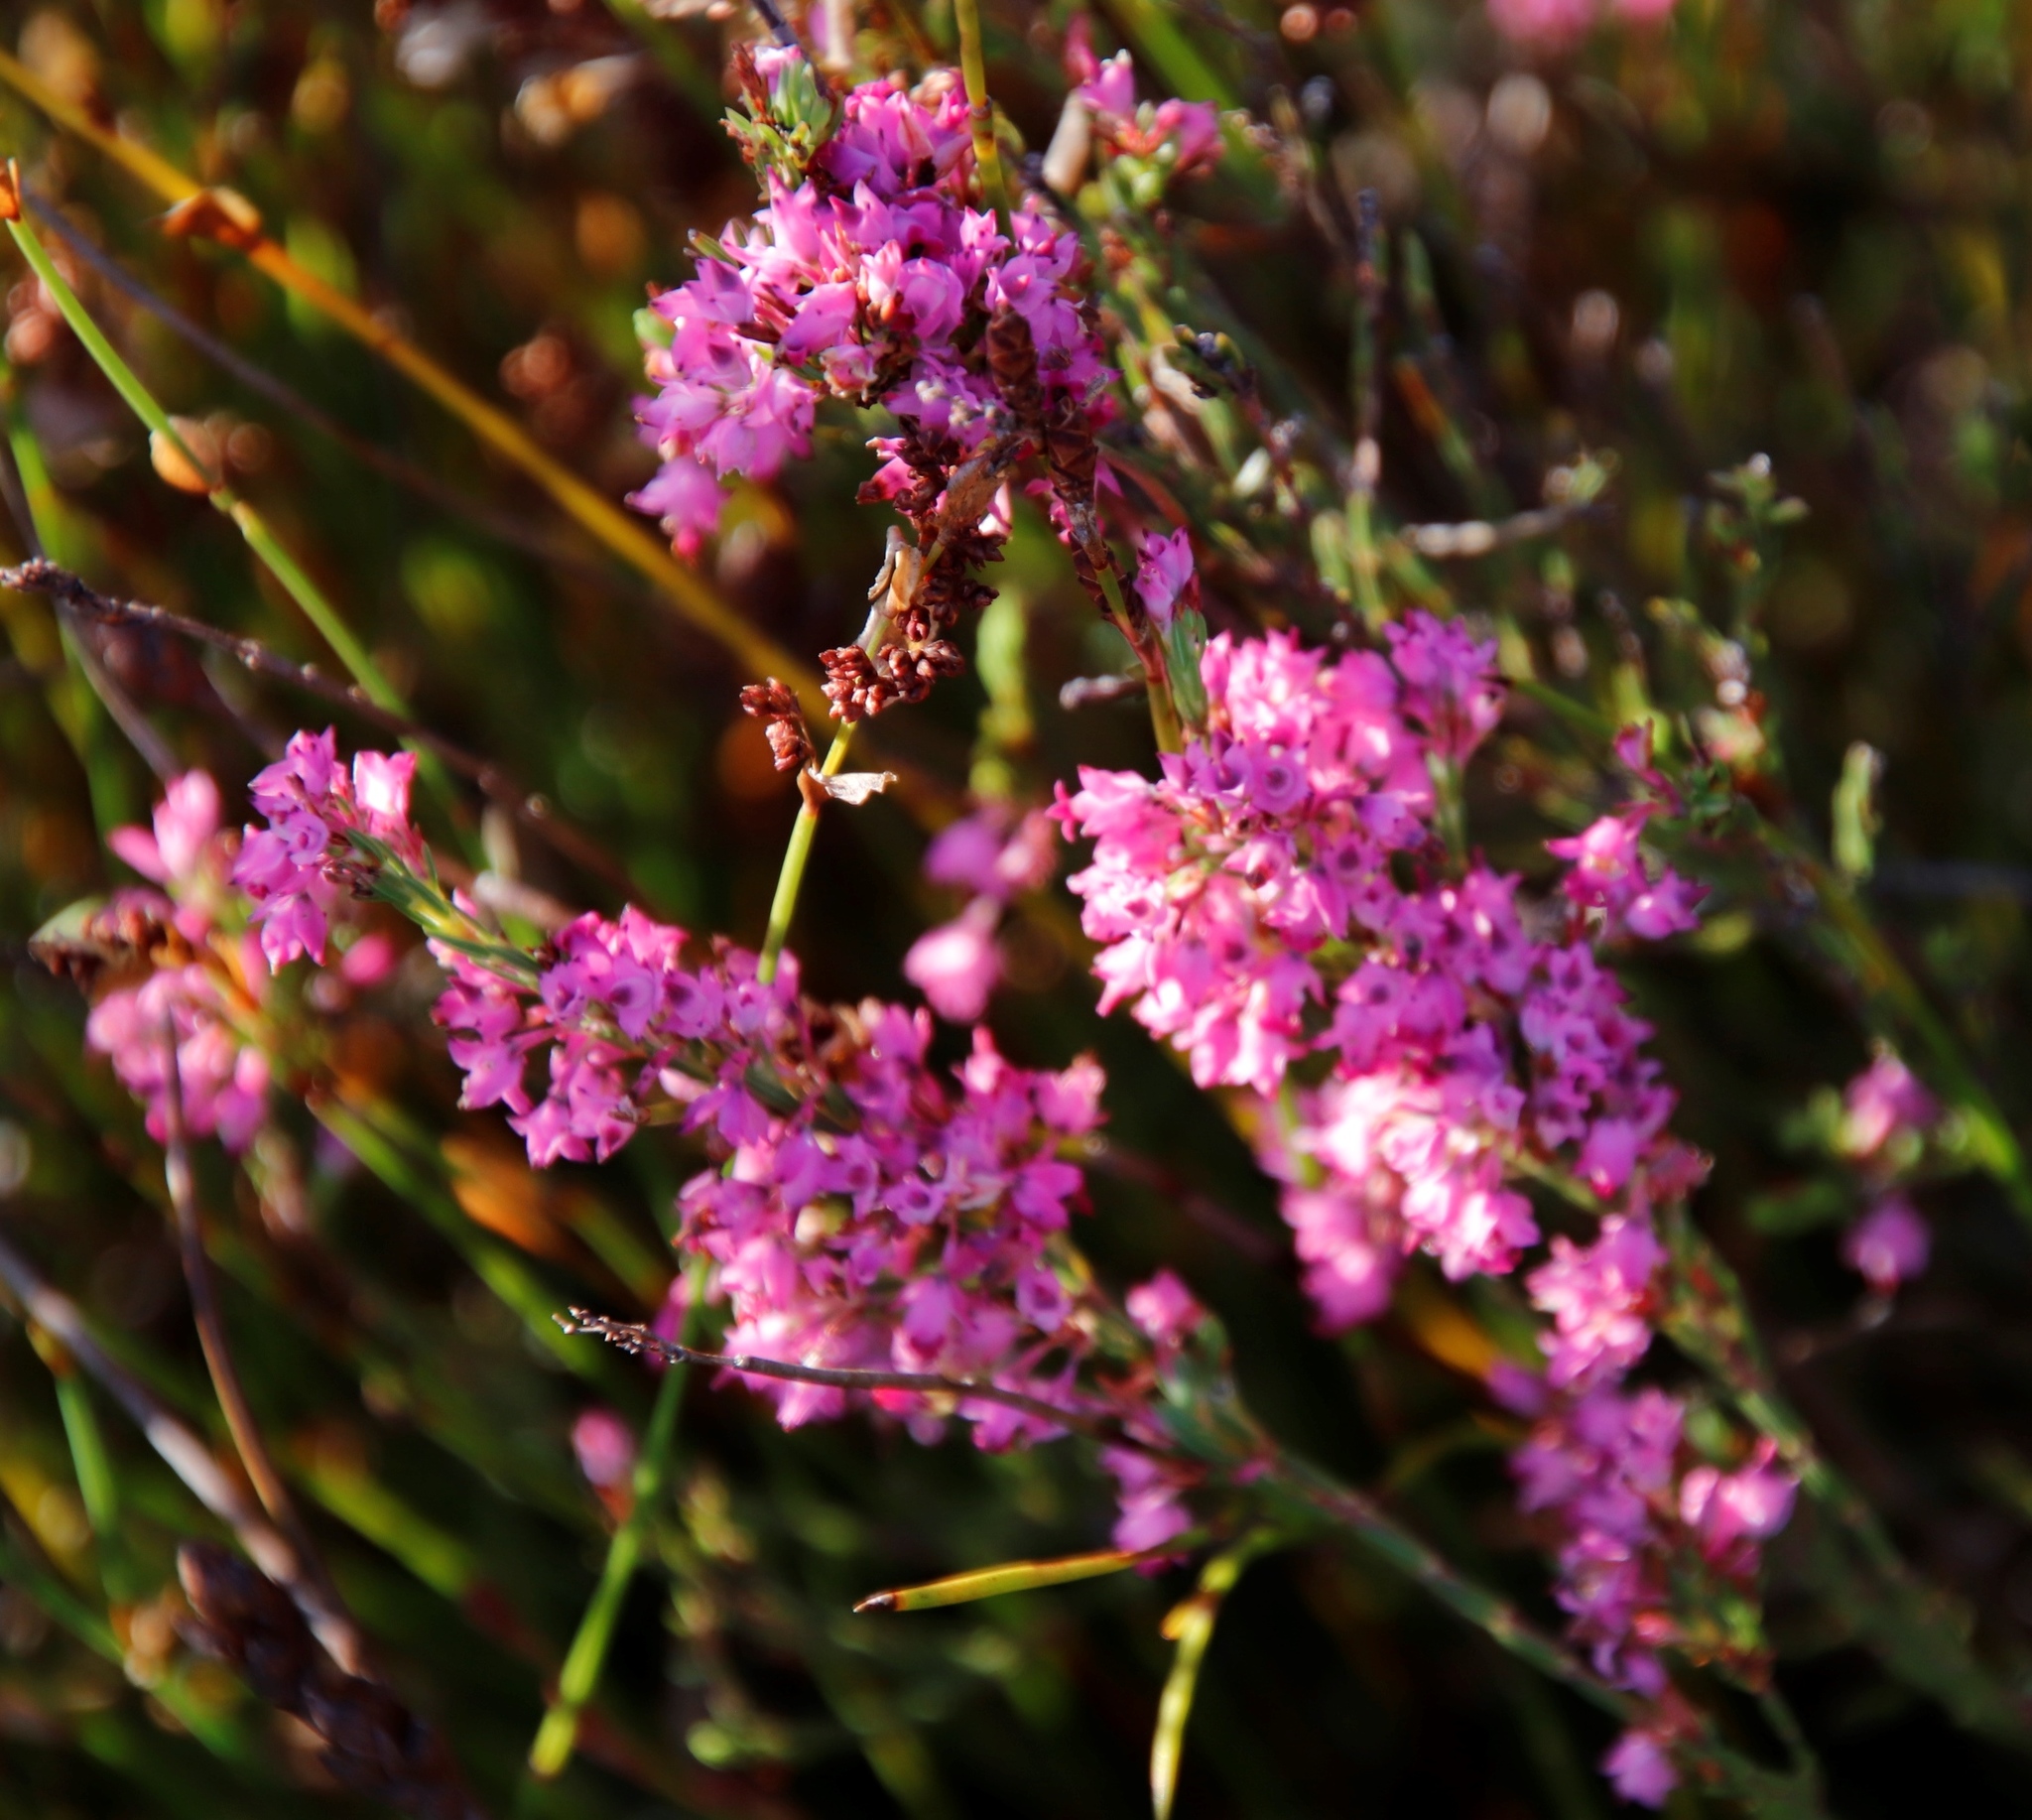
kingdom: Plantae
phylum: Tracheophyta
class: Magnoliopsida
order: Ericales
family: Ericaceae
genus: Erica
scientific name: Erica corifolia
